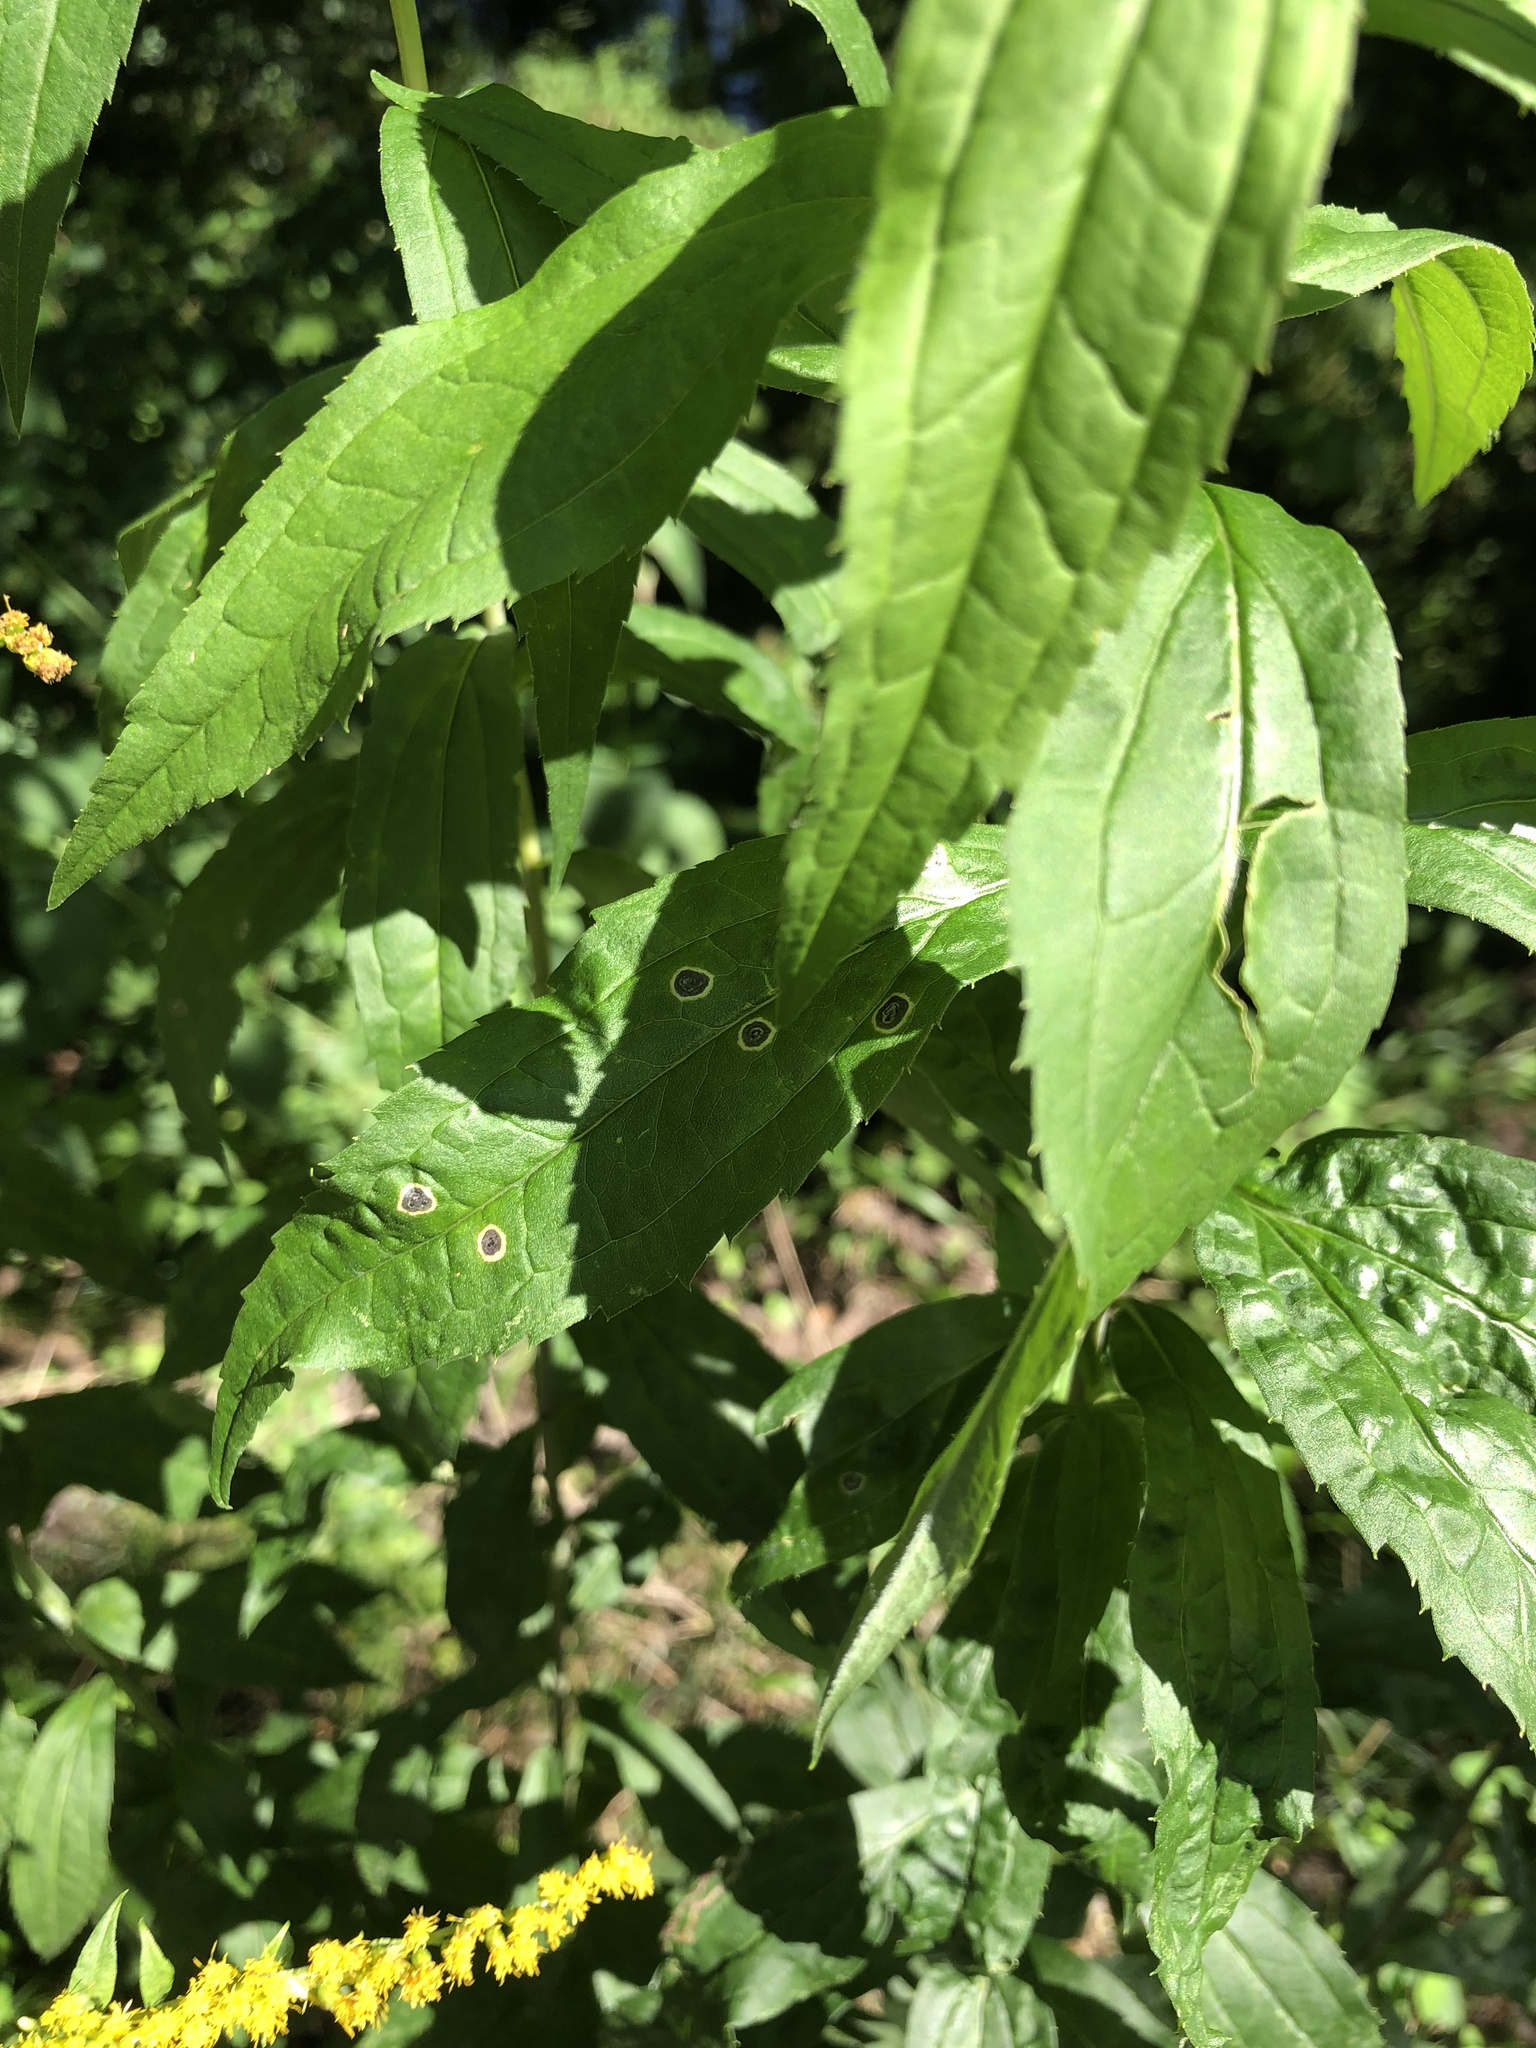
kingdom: Animalia
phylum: Arthropoda
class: Insecta
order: Diptera
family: Cecidomyiidae
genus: Asteromyia
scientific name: Asteromyia carbonifera
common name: Carbonifera goldenrod gall midge
